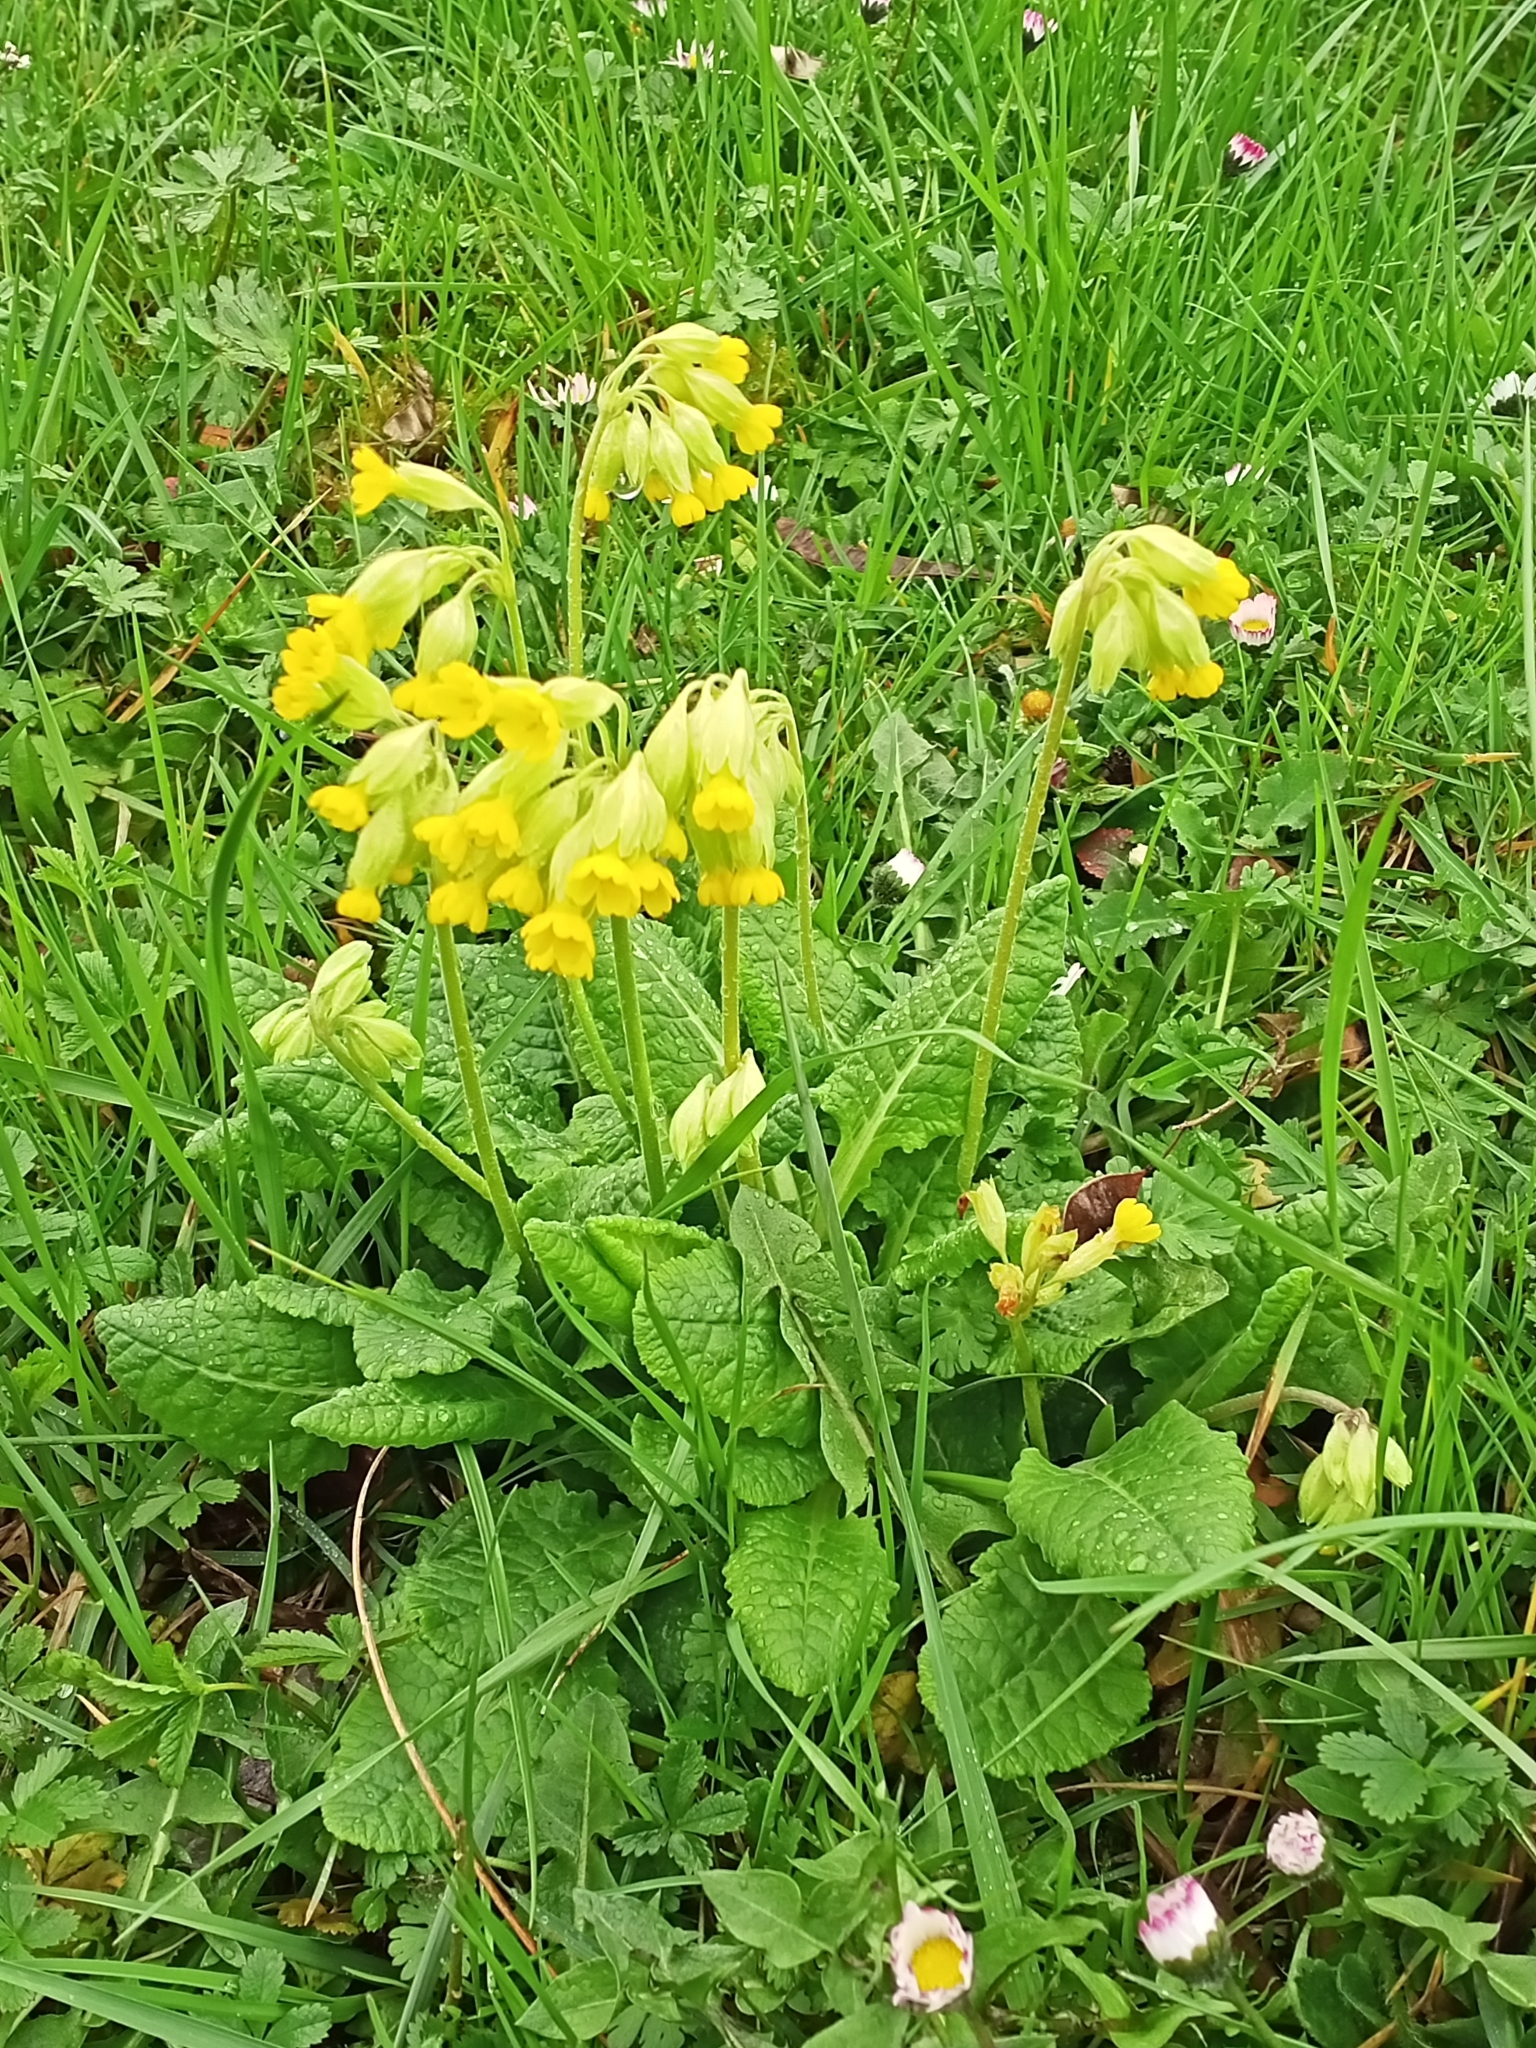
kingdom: Plantae
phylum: Tracheophyta
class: Magnoliopsida
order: Ericales
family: Primulaceae
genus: Primula
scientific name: Primula veris
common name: Cowslip
